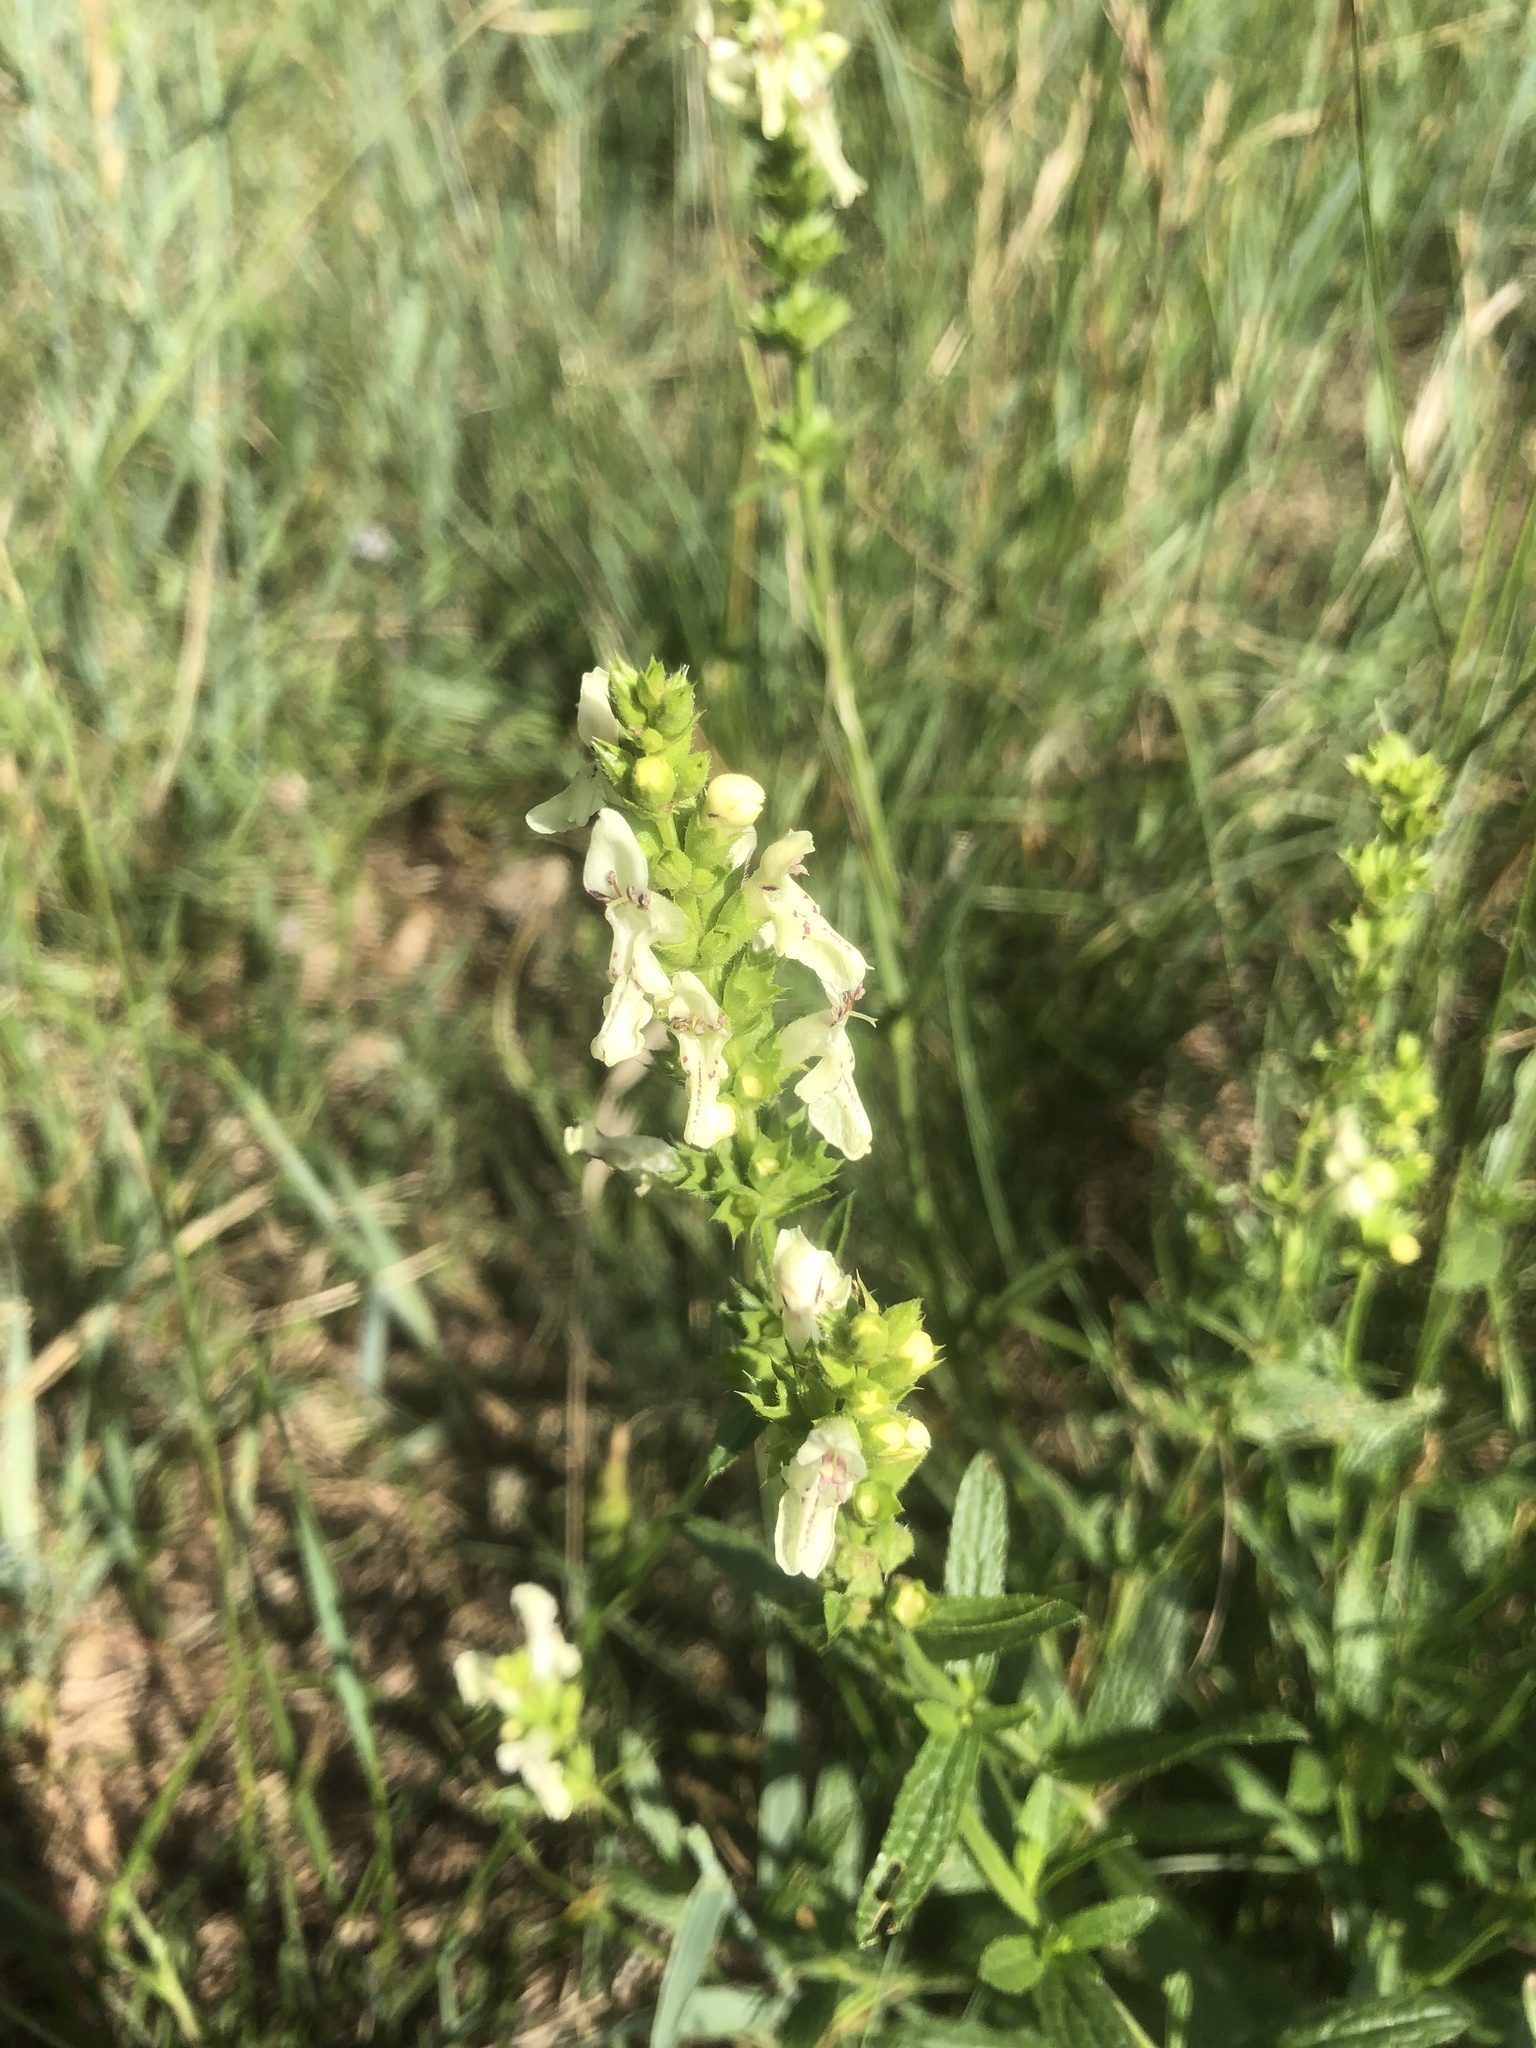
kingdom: Plantae
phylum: Tracheophyta
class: Magnoliopsida
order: Lamiales
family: Lamiaceae
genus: Stachys
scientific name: Stachys recta
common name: Perennial yellow-woundwort
